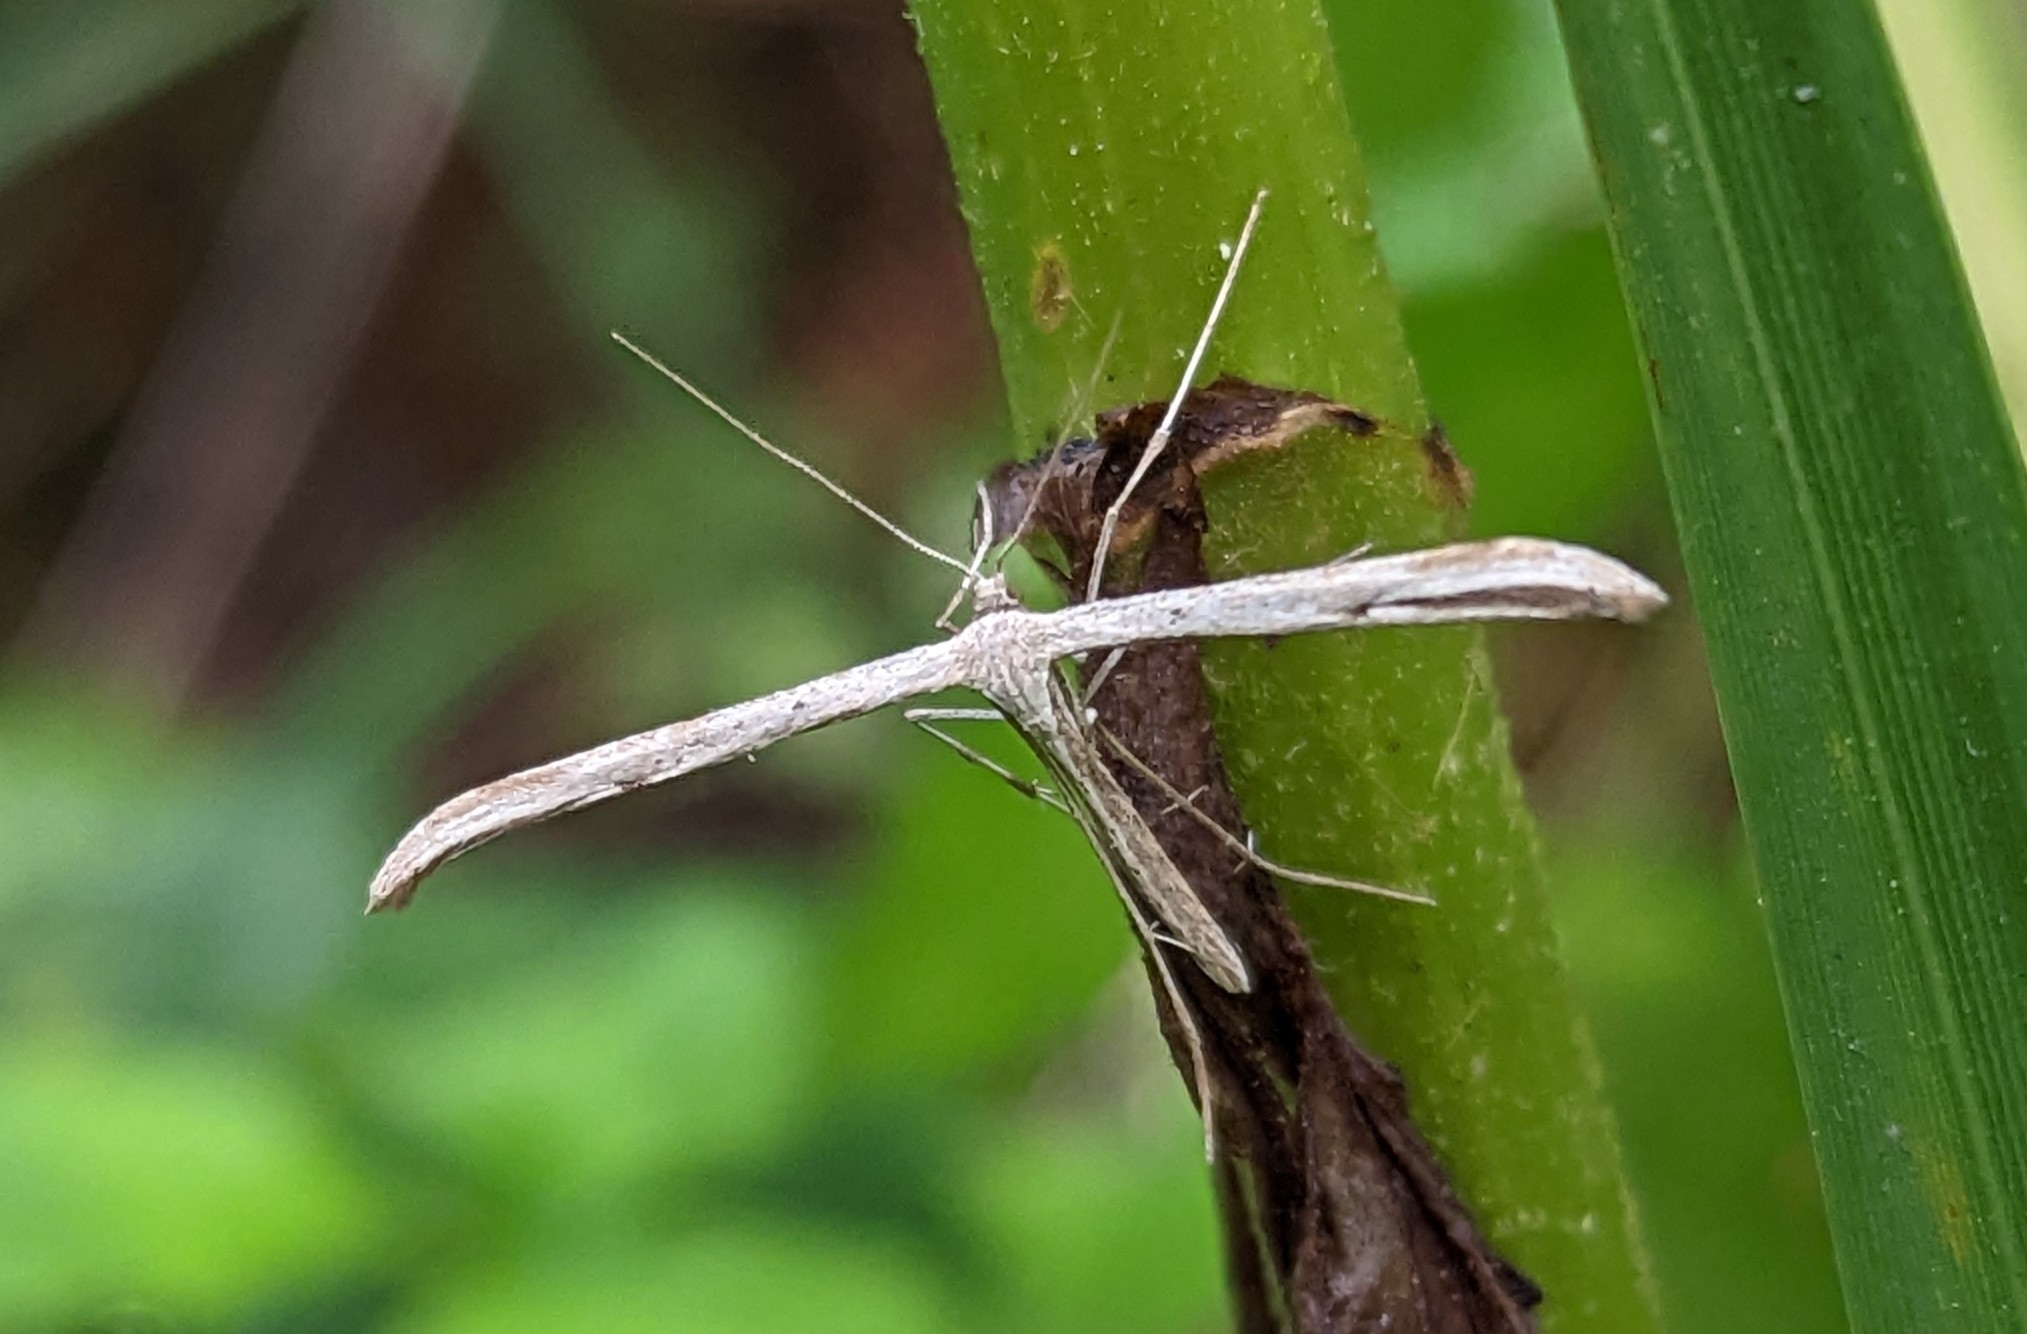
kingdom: Animalia
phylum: Arthropoda
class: Insecta
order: Lepidoptera
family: Pterophoridae
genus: Emmelina
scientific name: Emmelina monodactyla
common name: Common plume
